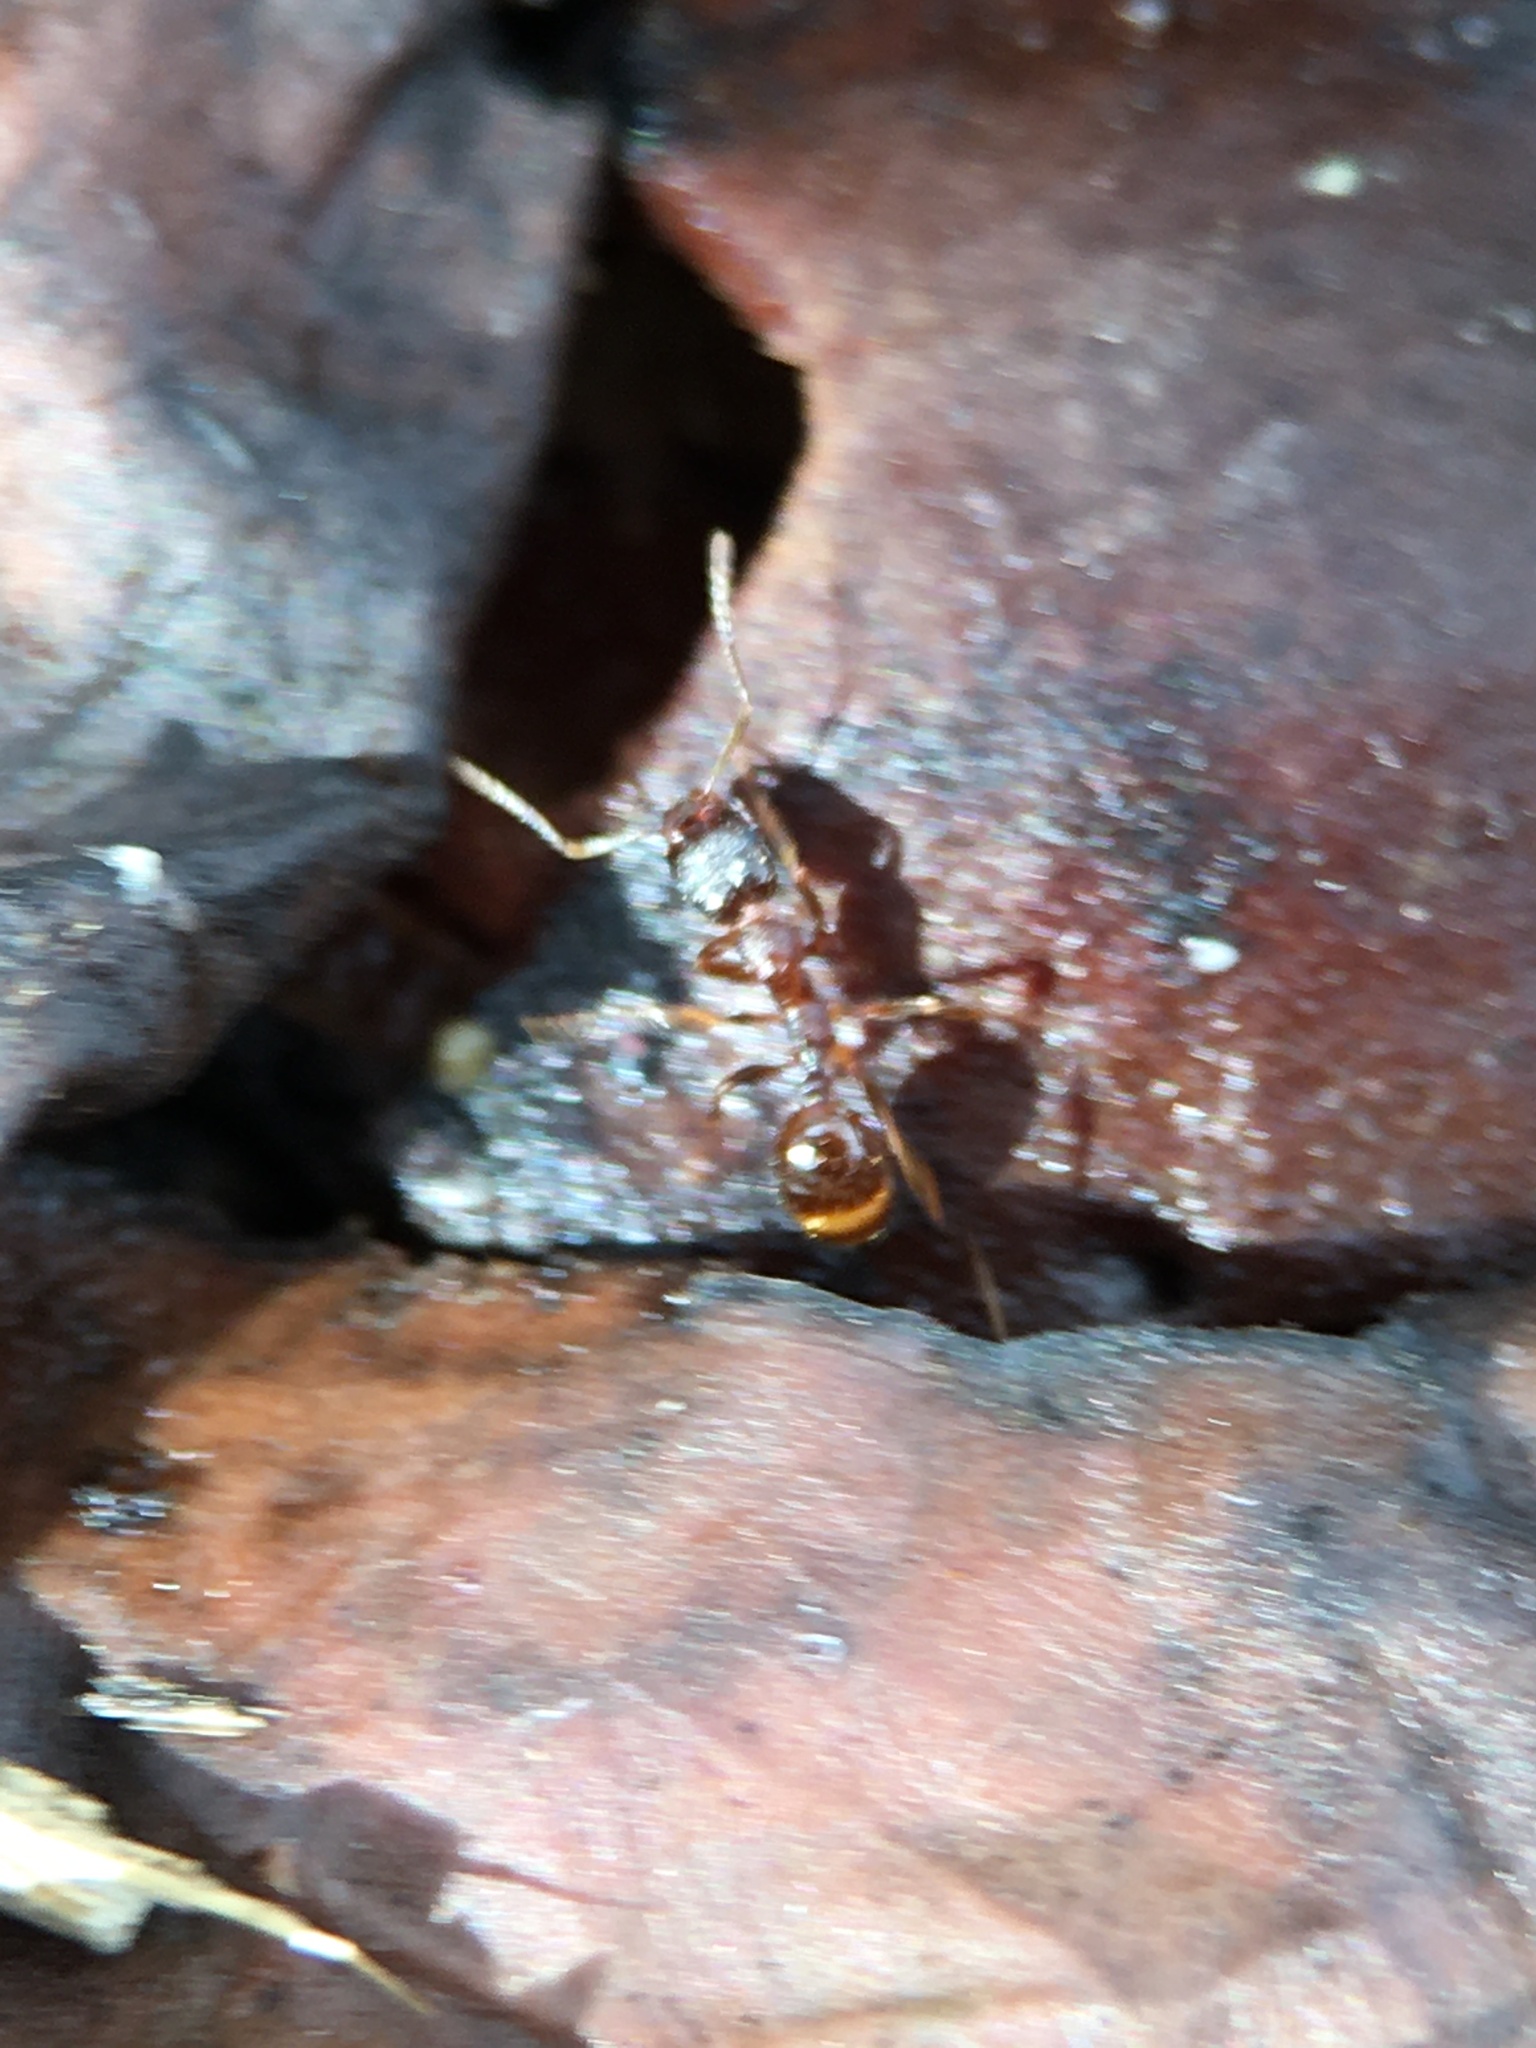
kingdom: Animalia
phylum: Arthropoda
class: Insecta
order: Hymenoptera
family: Formicidae
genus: Aphaenogaster
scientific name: Aphaenogaster occidentalis
